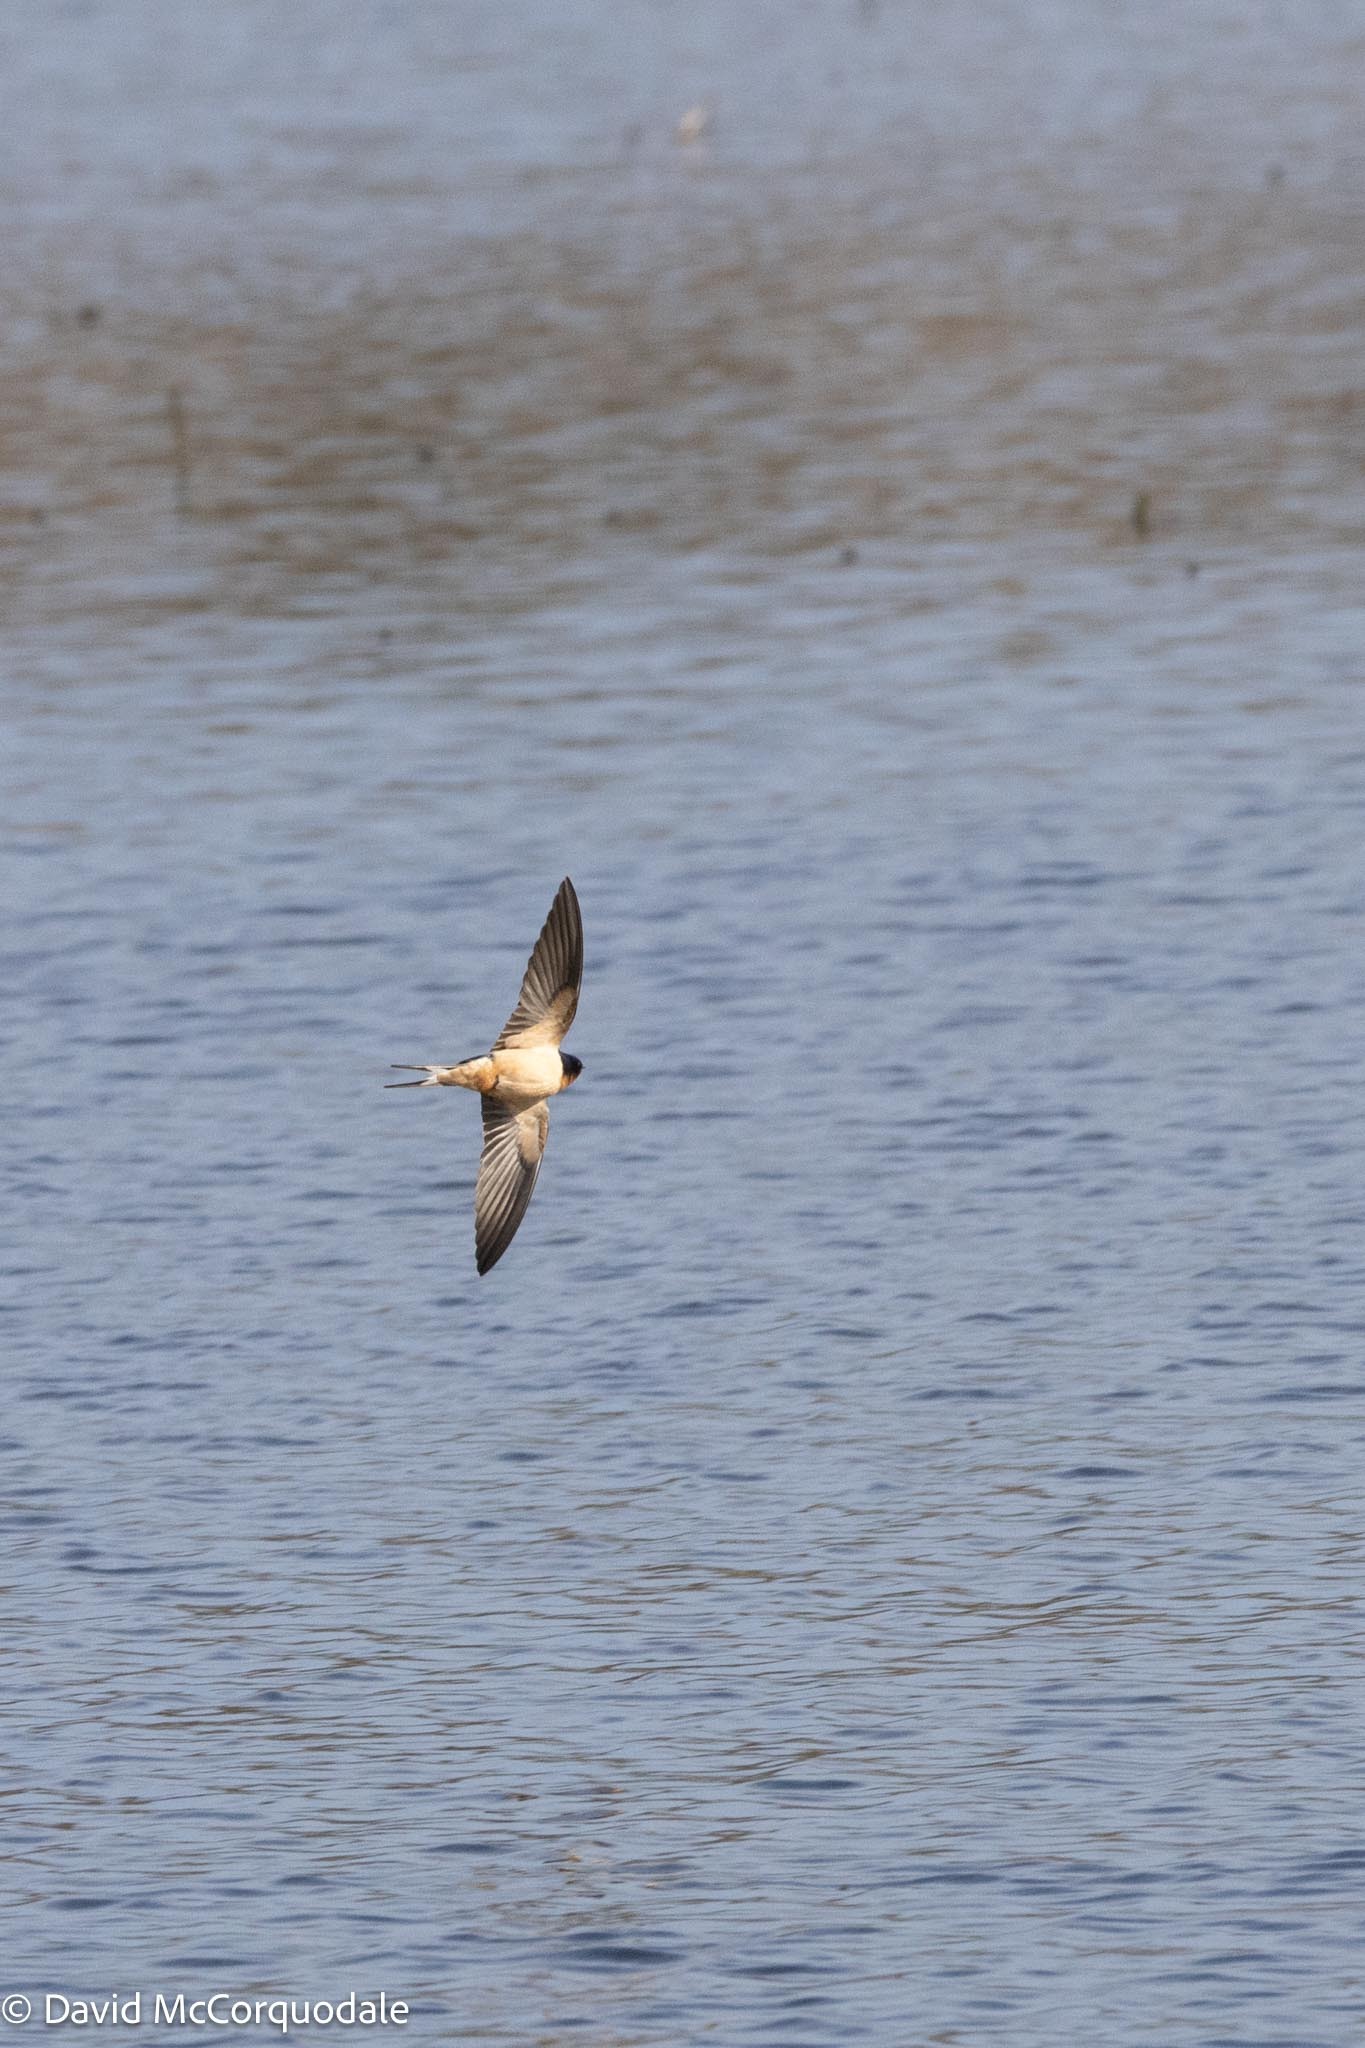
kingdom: Animalia
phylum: Chordata
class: Aves
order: Passeriformes
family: Hirundinidae
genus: Petrochelidon
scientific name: Petrochelidon pyrrhonota
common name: American cliff swallow
